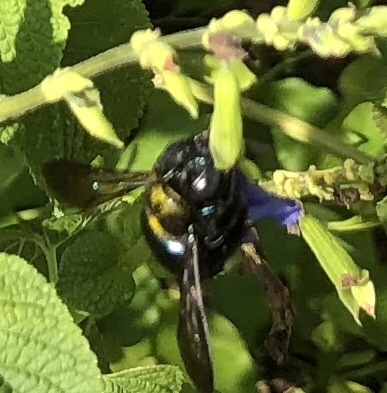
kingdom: Animalia
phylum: Arthropoda
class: Insecta
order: Hymenoptera
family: Apidae
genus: Xylocopa
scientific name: Xylocopa micans
